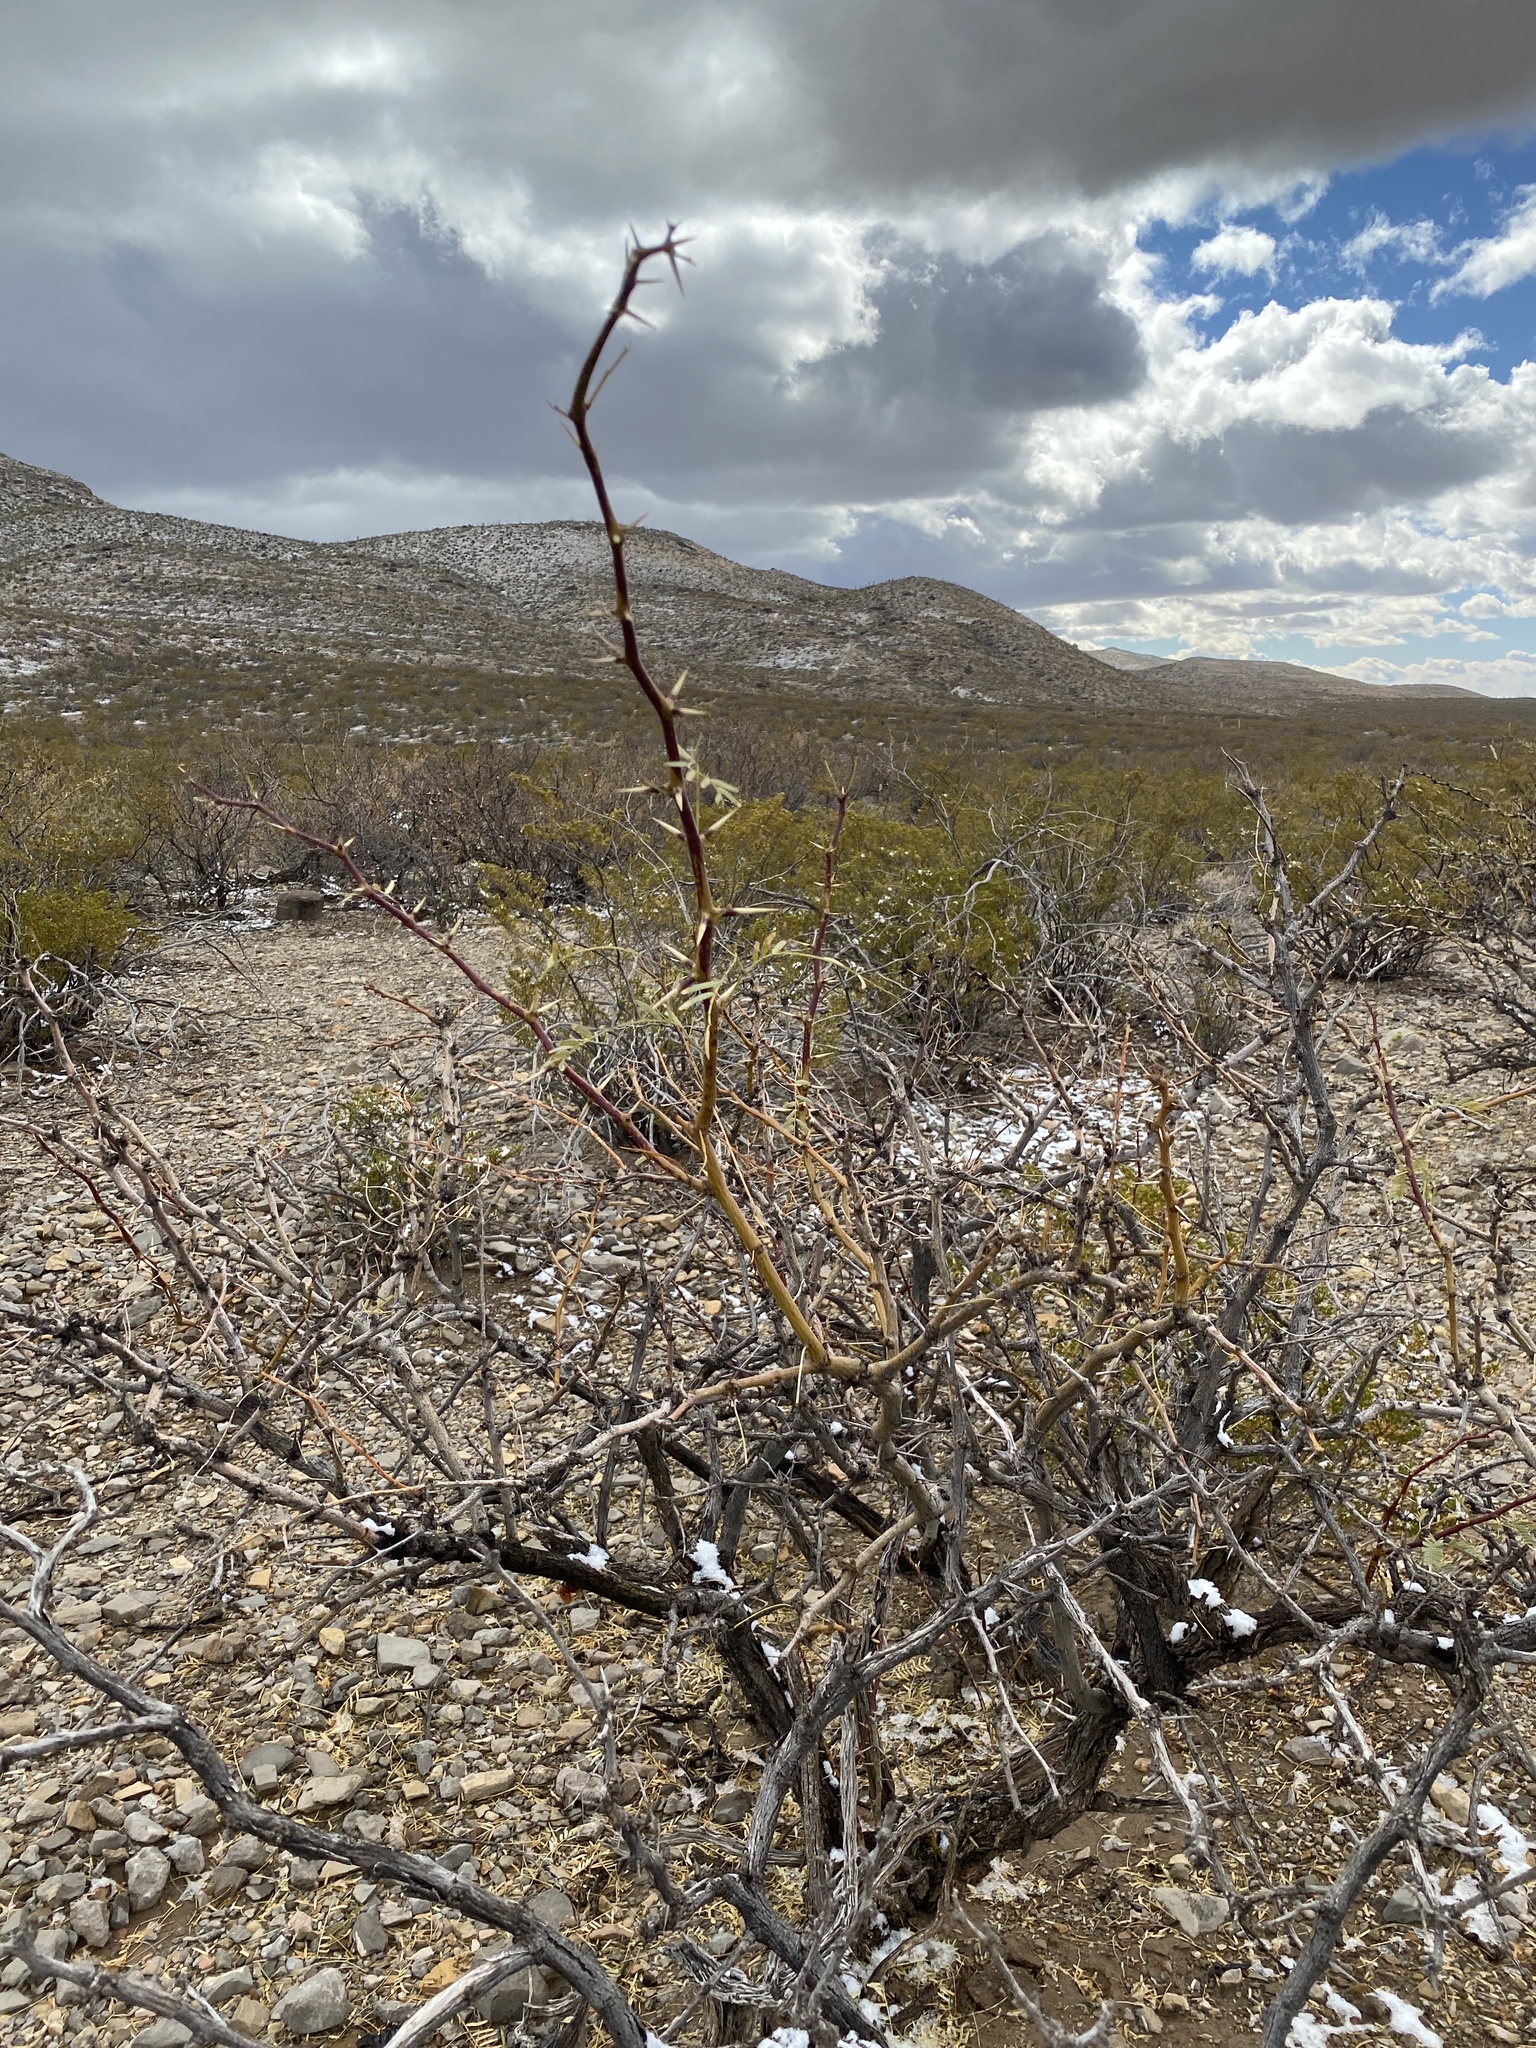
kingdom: Plantae
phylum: Tracheophyta
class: Magnoliopsida
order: Fabales
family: Fabaceae
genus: Prosopis
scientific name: Prosopis glandulosa
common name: Honey mesquite
